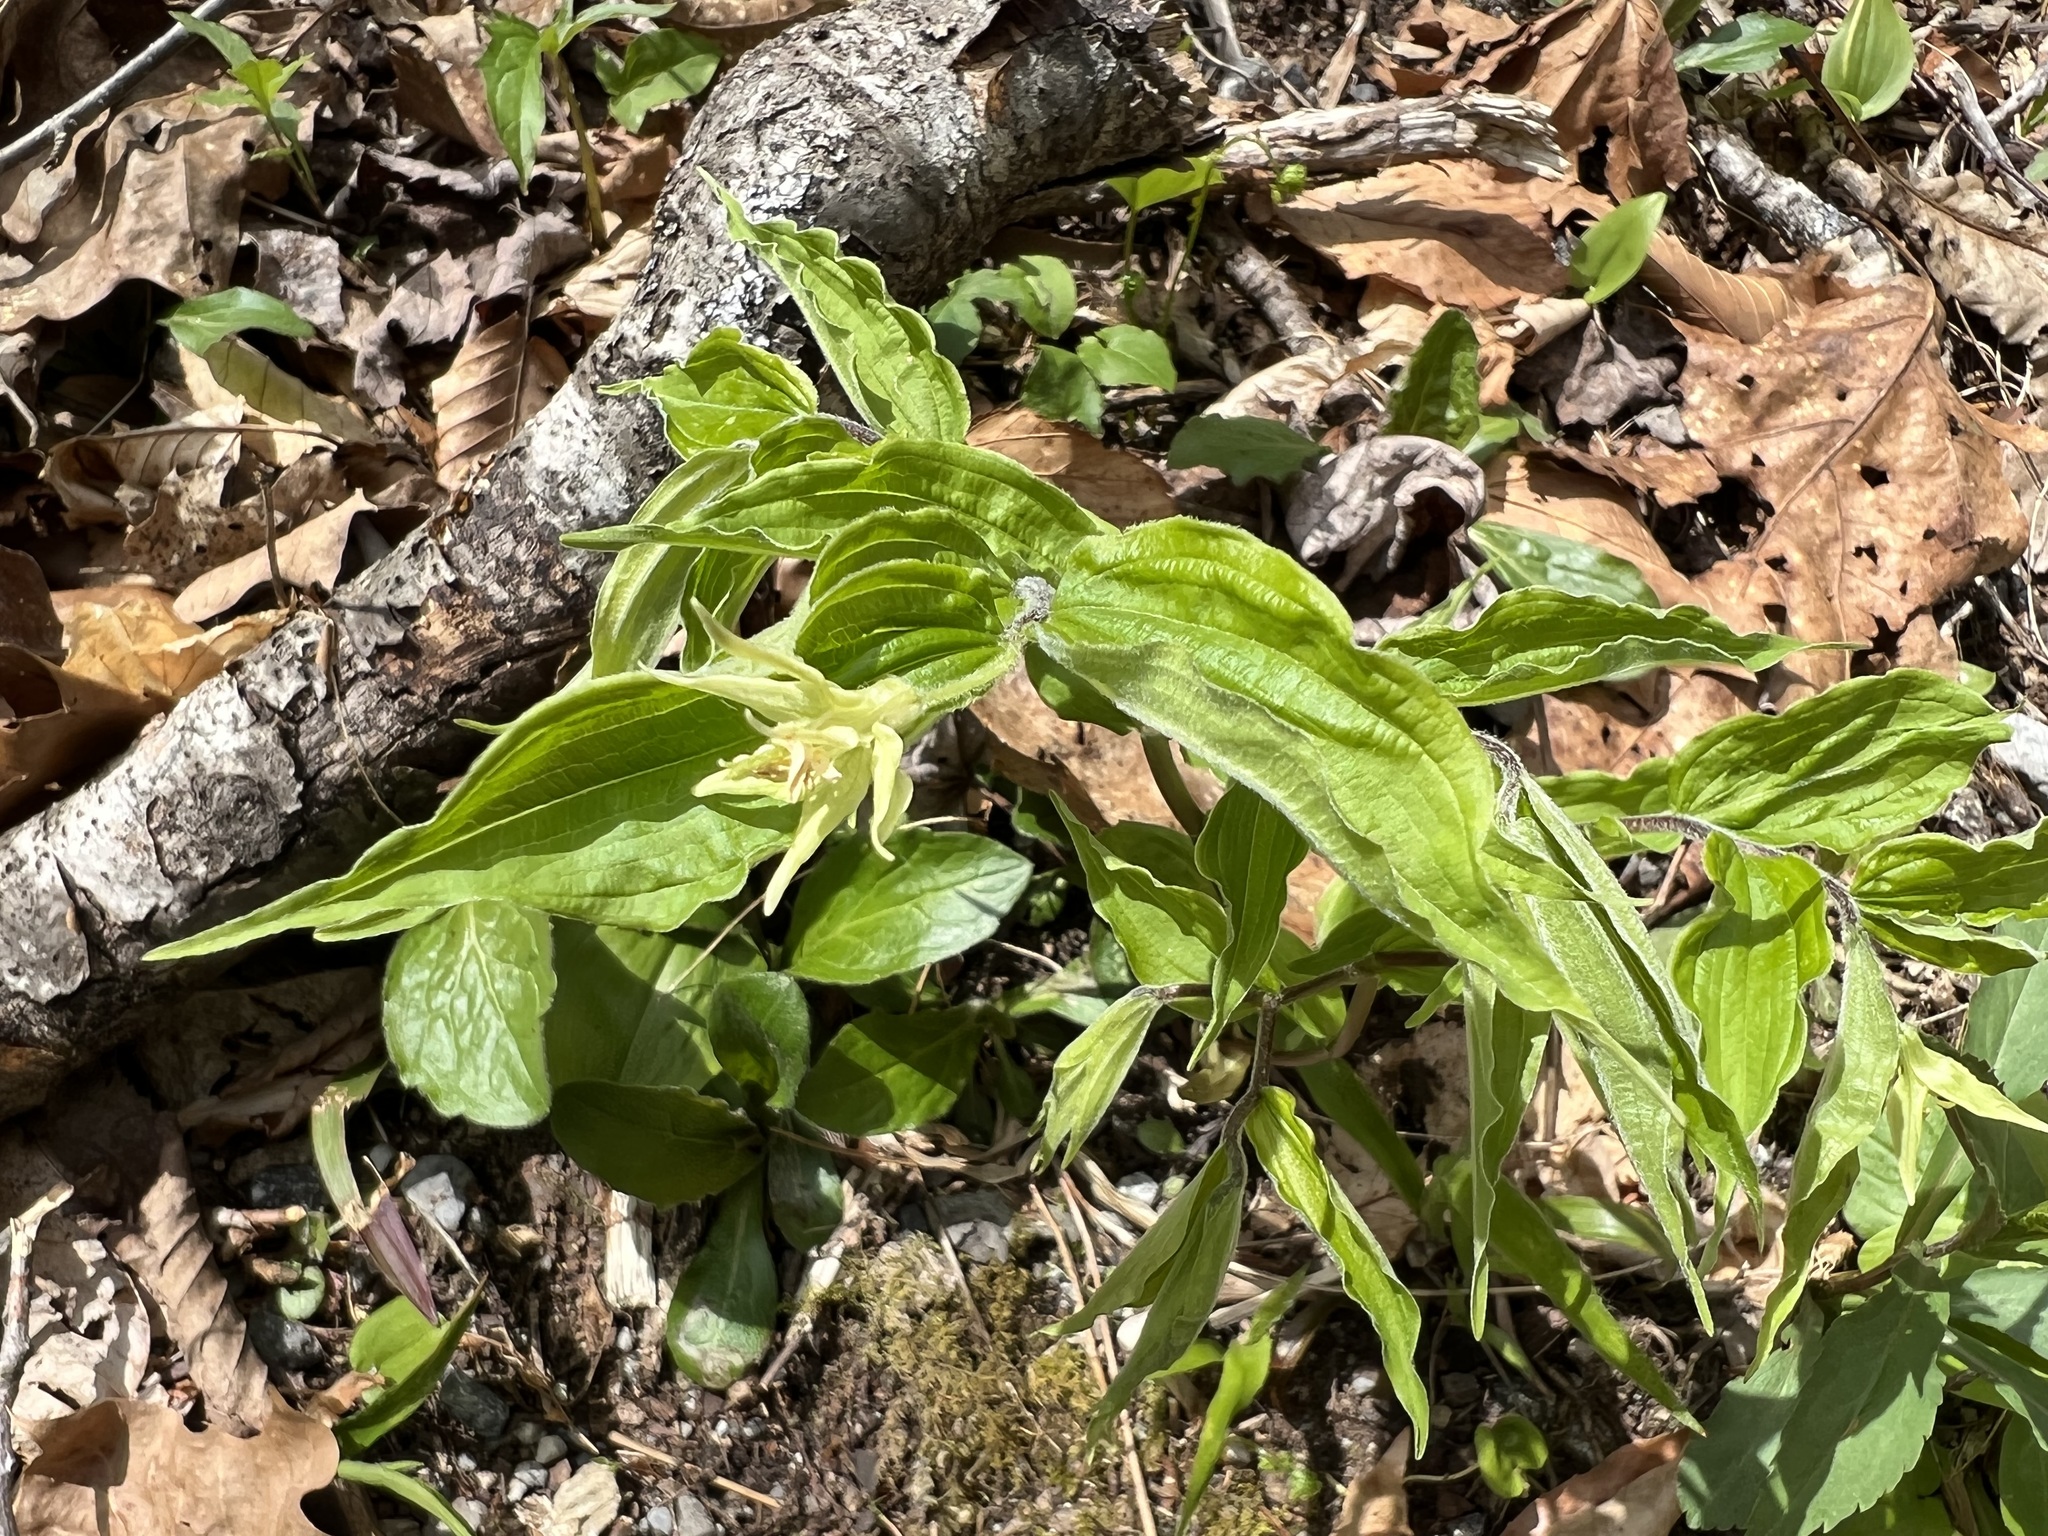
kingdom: Plantae
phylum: Tracheophyta
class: Liliopsida
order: Liliales
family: Liliaceae
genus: Prosartes
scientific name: Prosartes lanuginosa
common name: Hairy mandarin
